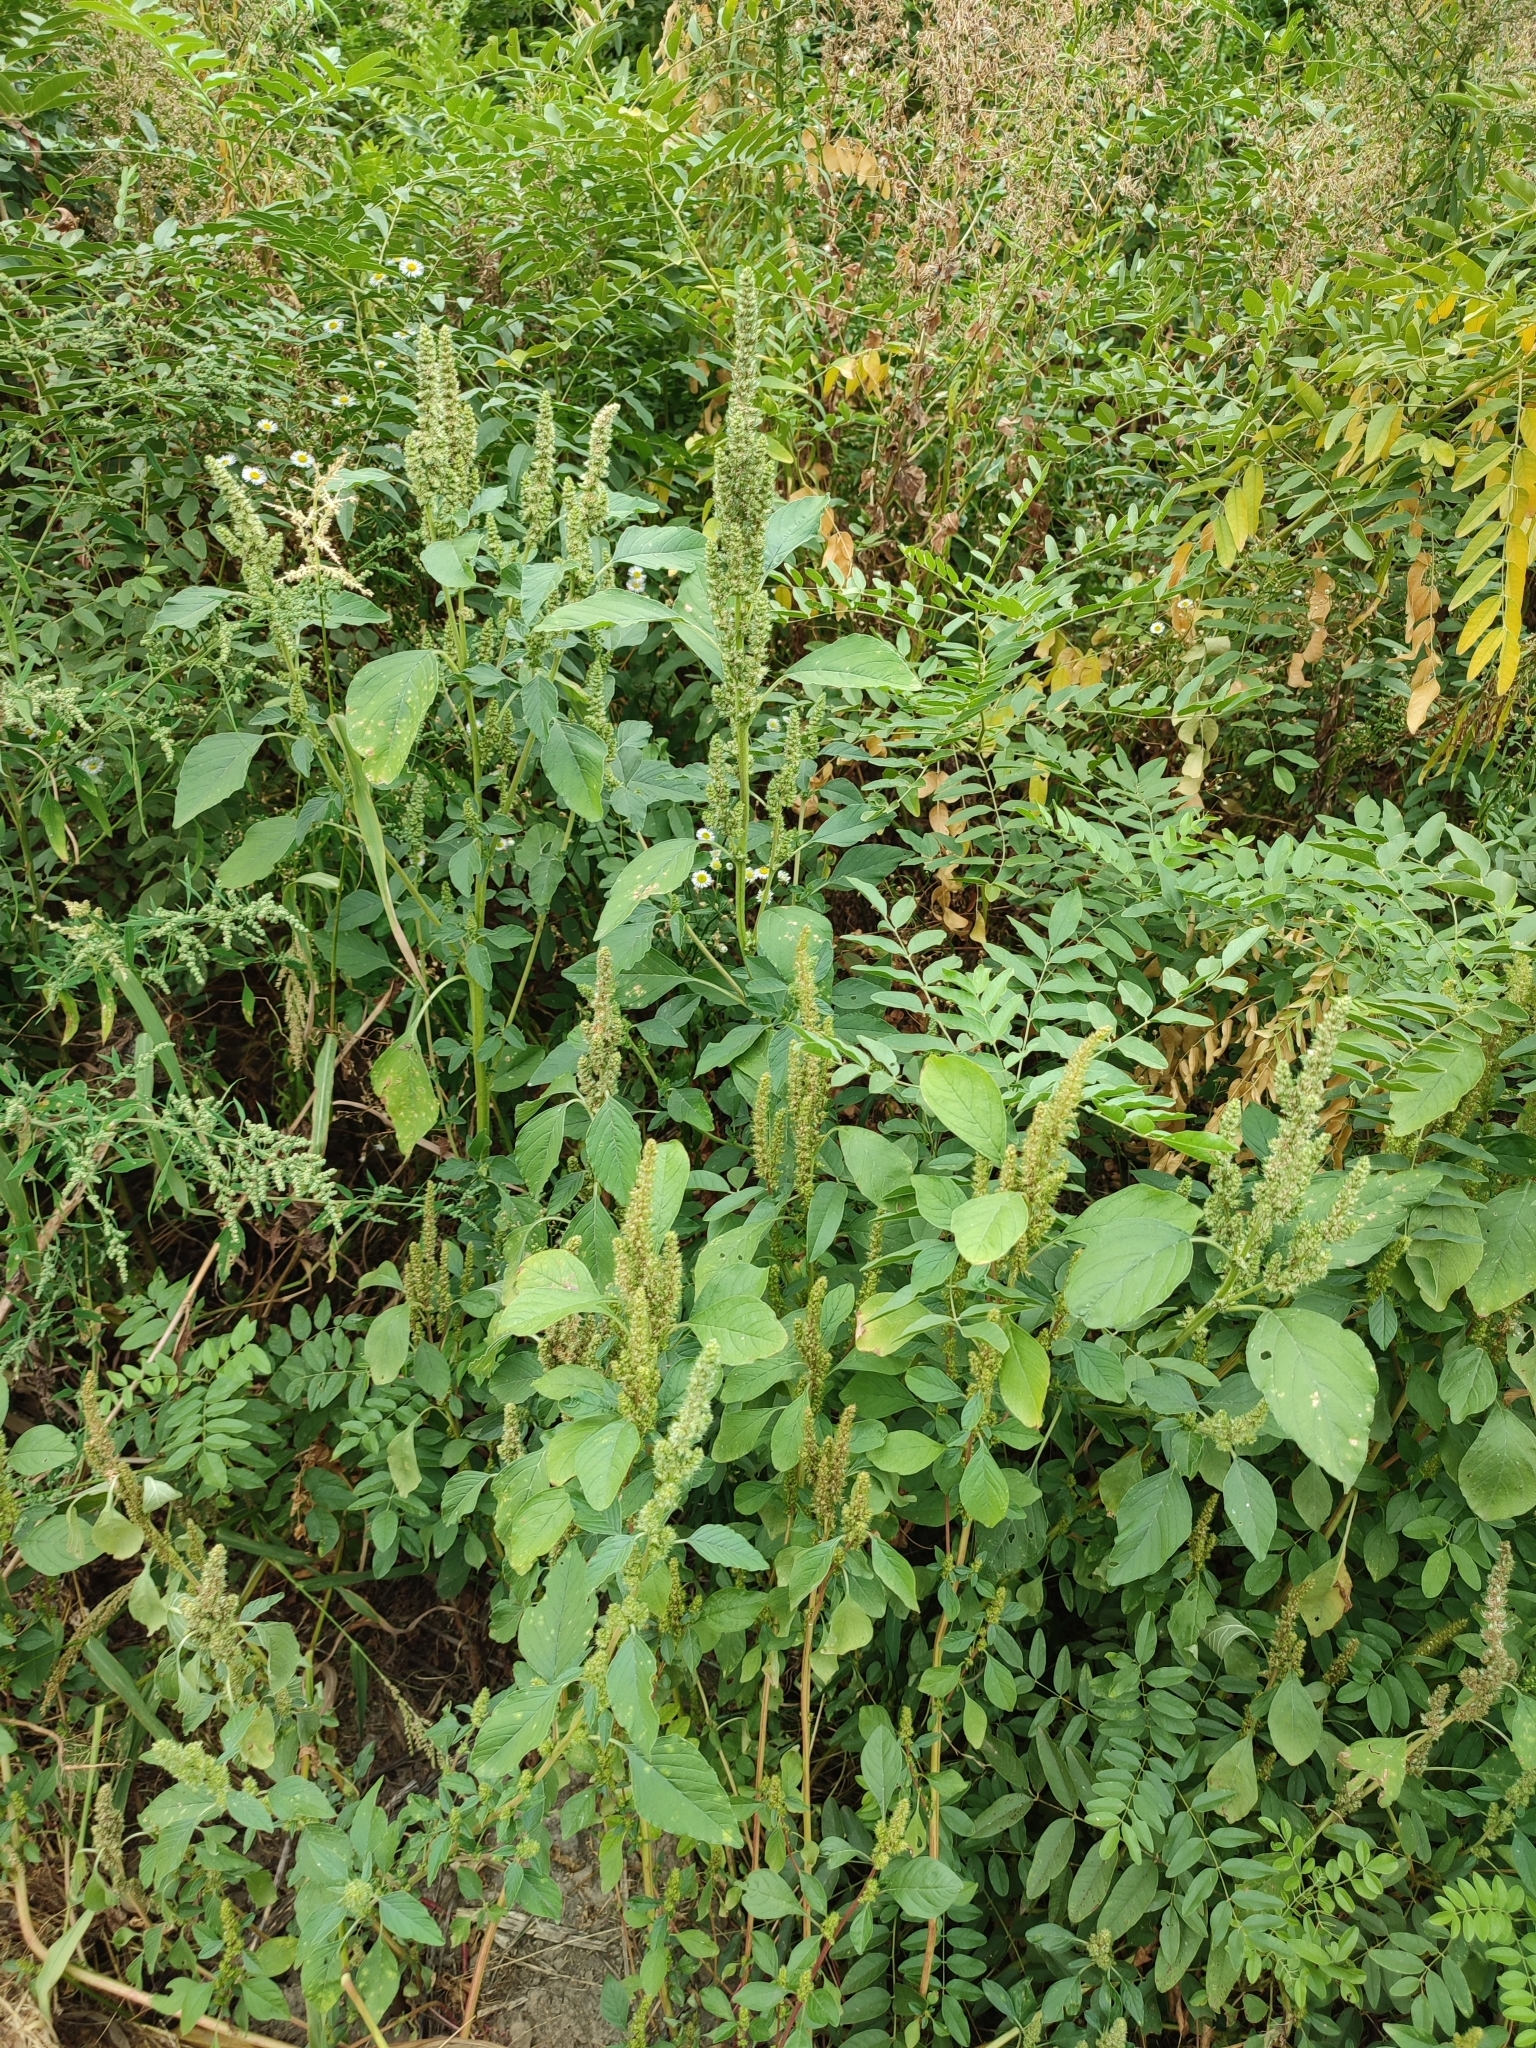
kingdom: Plantae
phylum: Tracheophyta
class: Magnoliopsida
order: Caryophyllales
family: Amaranthaceae
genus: Amaranthus
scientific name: Amaranthus retroflexus
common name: Redroot amaranth
